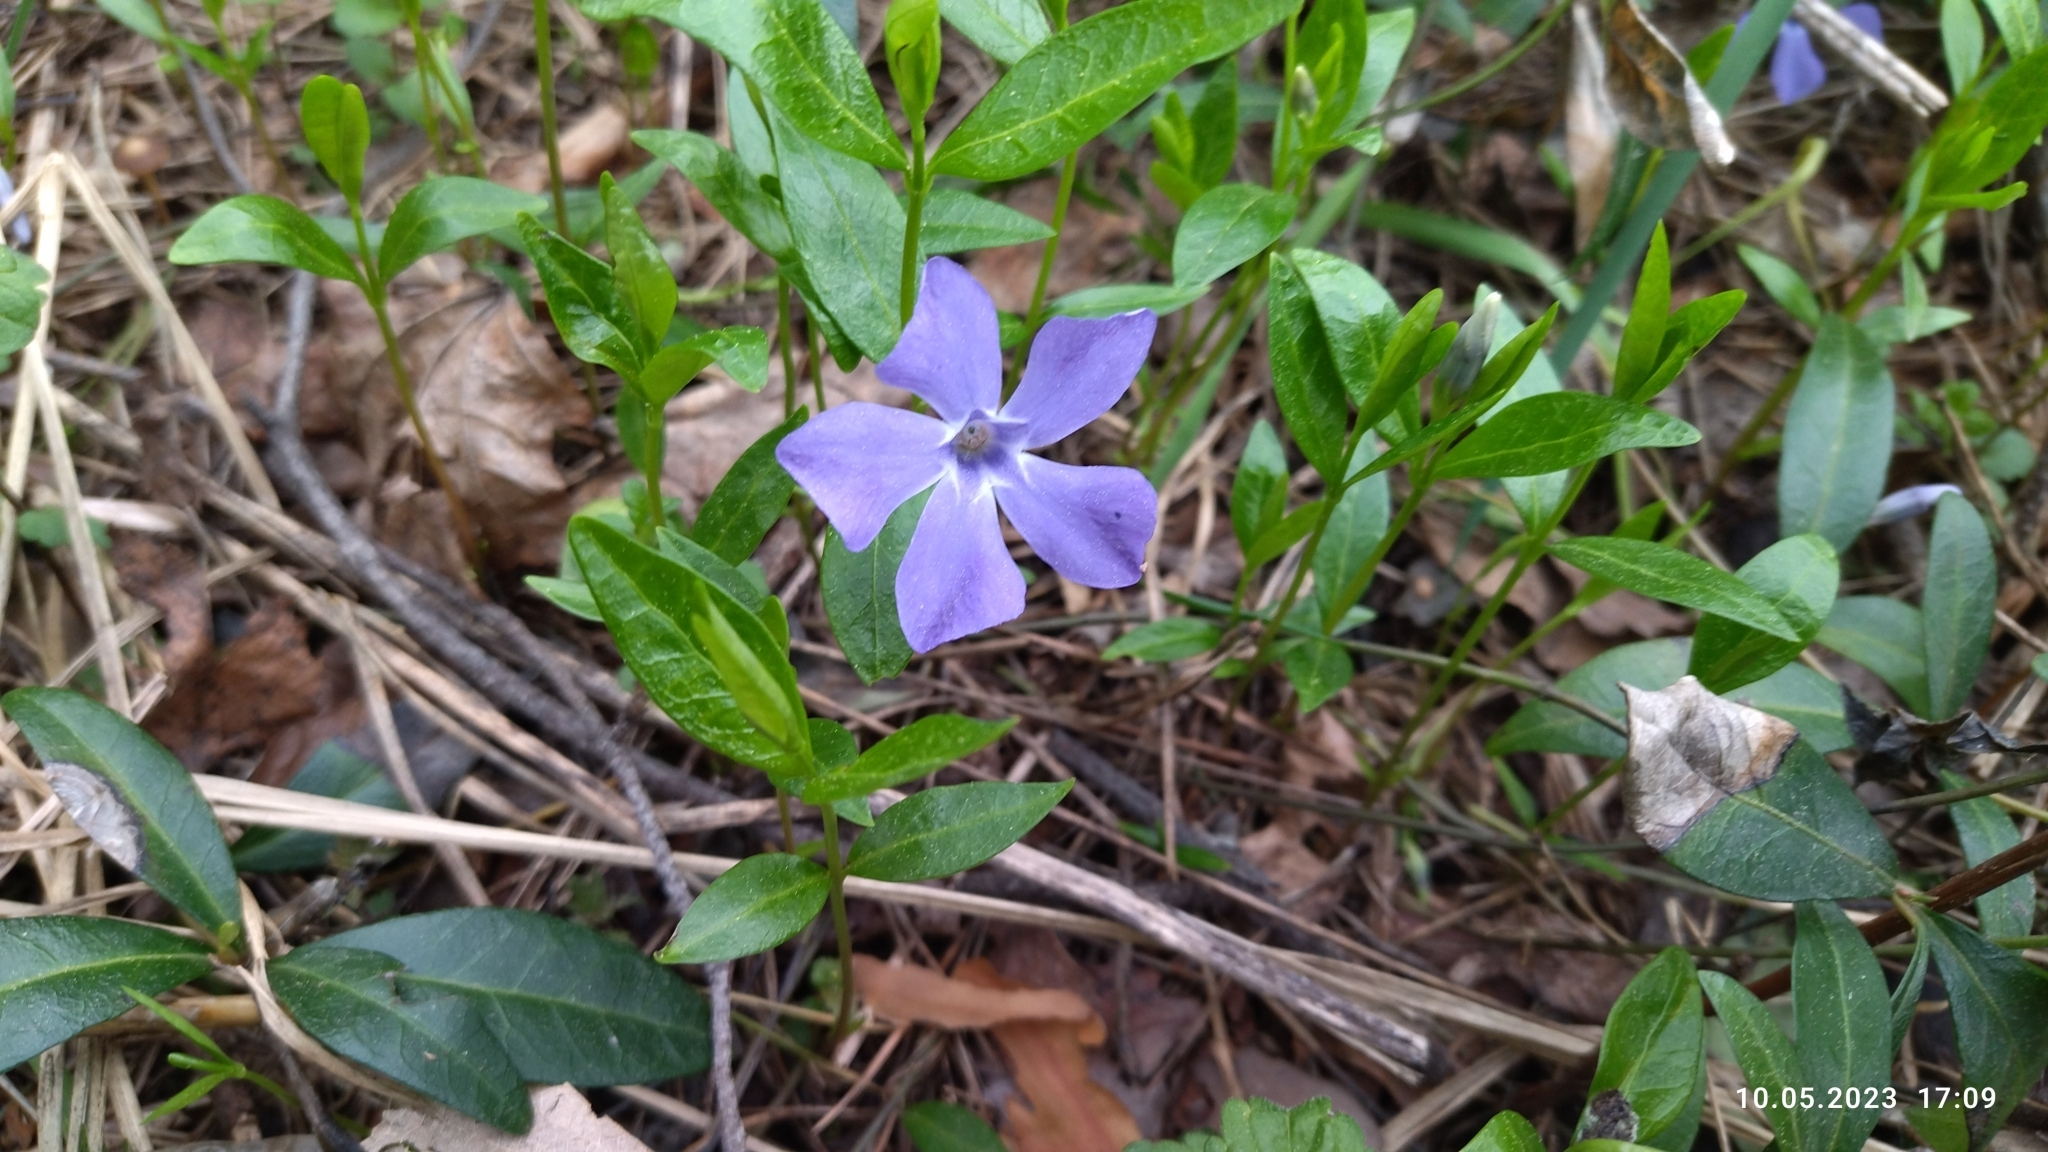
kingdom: Plantae
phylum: Tracheophyta
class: Magnoliopsida
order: Gentianales
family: Apocynaceae
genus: Vinca
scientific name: Vinca minor
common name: Lesser periwinkle
